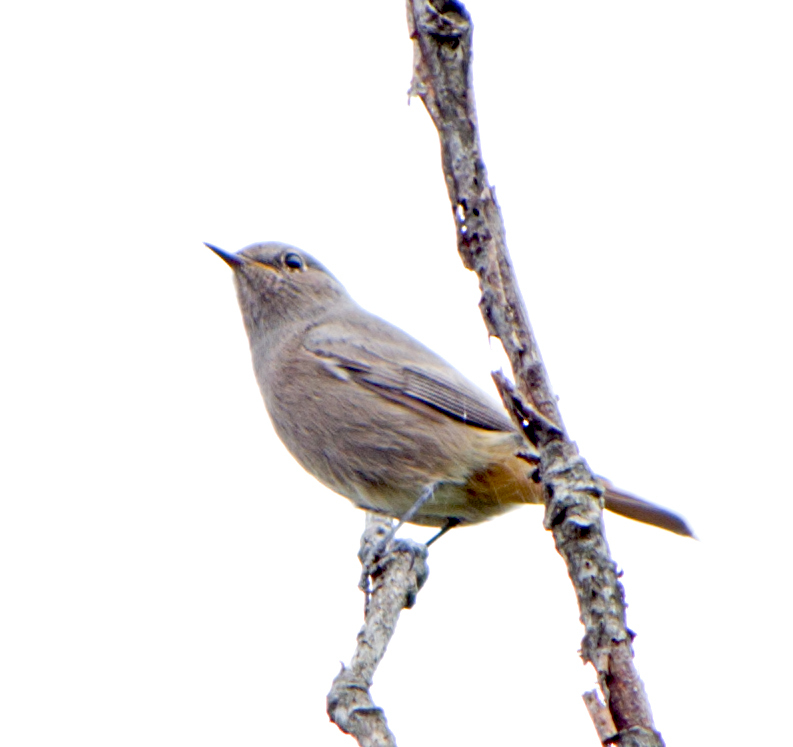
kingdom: Animalia
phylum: Chordata
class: Aves
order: Passeriformes
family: Muscicapidae
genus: Phoenicurus
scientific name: Phoenicurus ochruros
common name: Black redstart
